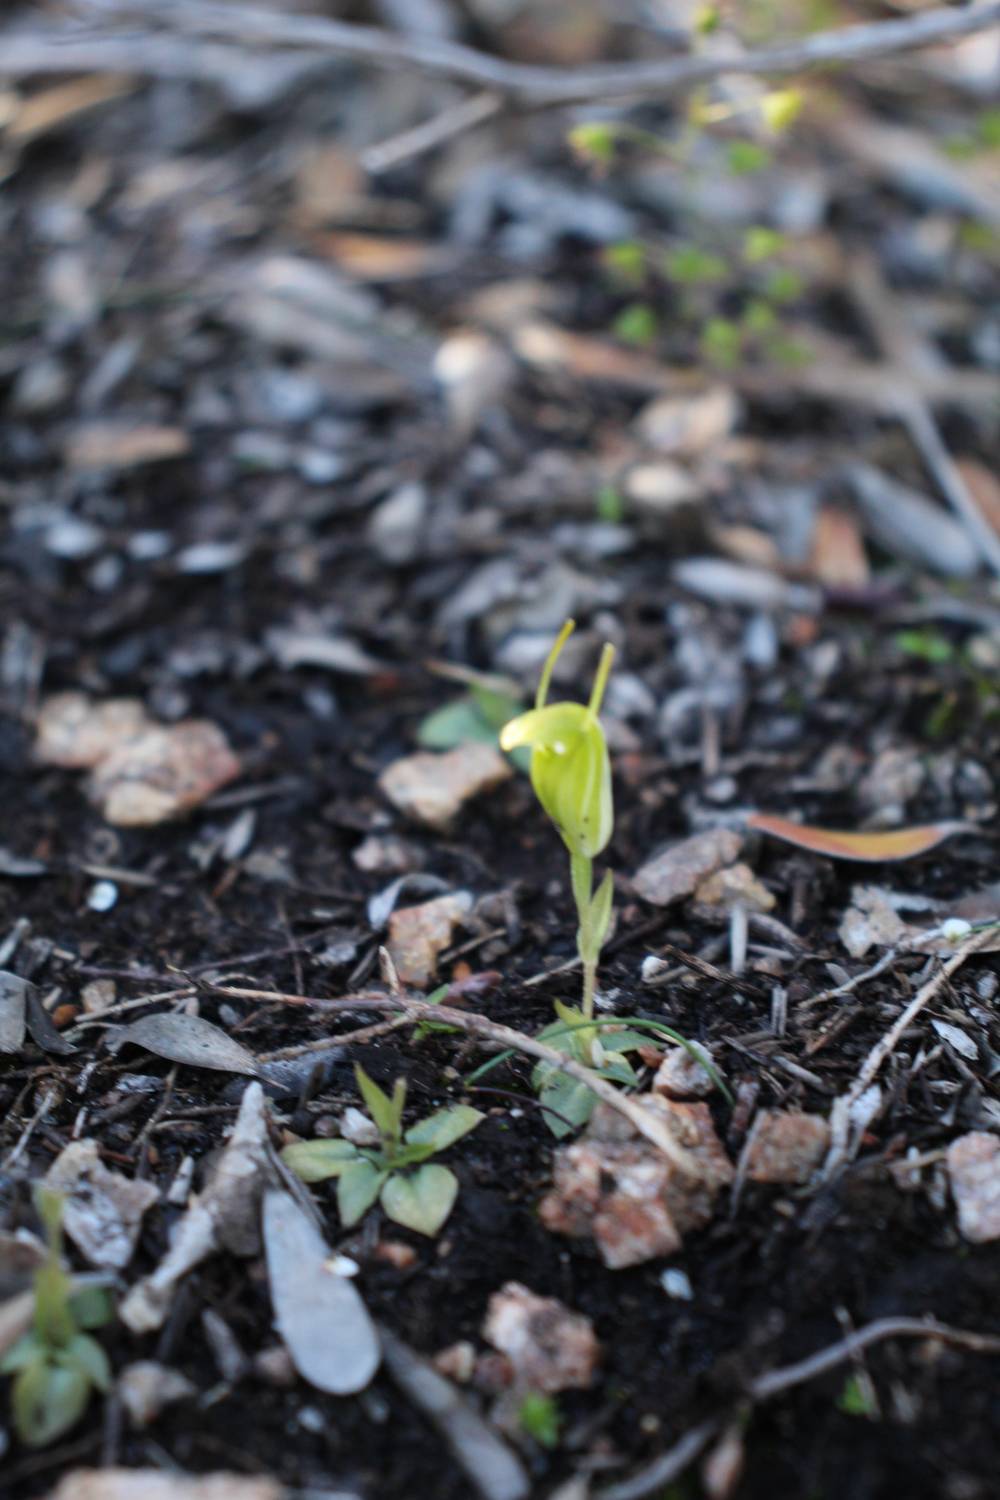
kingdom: Plantae
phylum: Tracheophyta
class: Liliopsida
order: Asparagales
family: Orchidaceae
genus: Pterostylis
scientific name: Pterostylis lortensis
